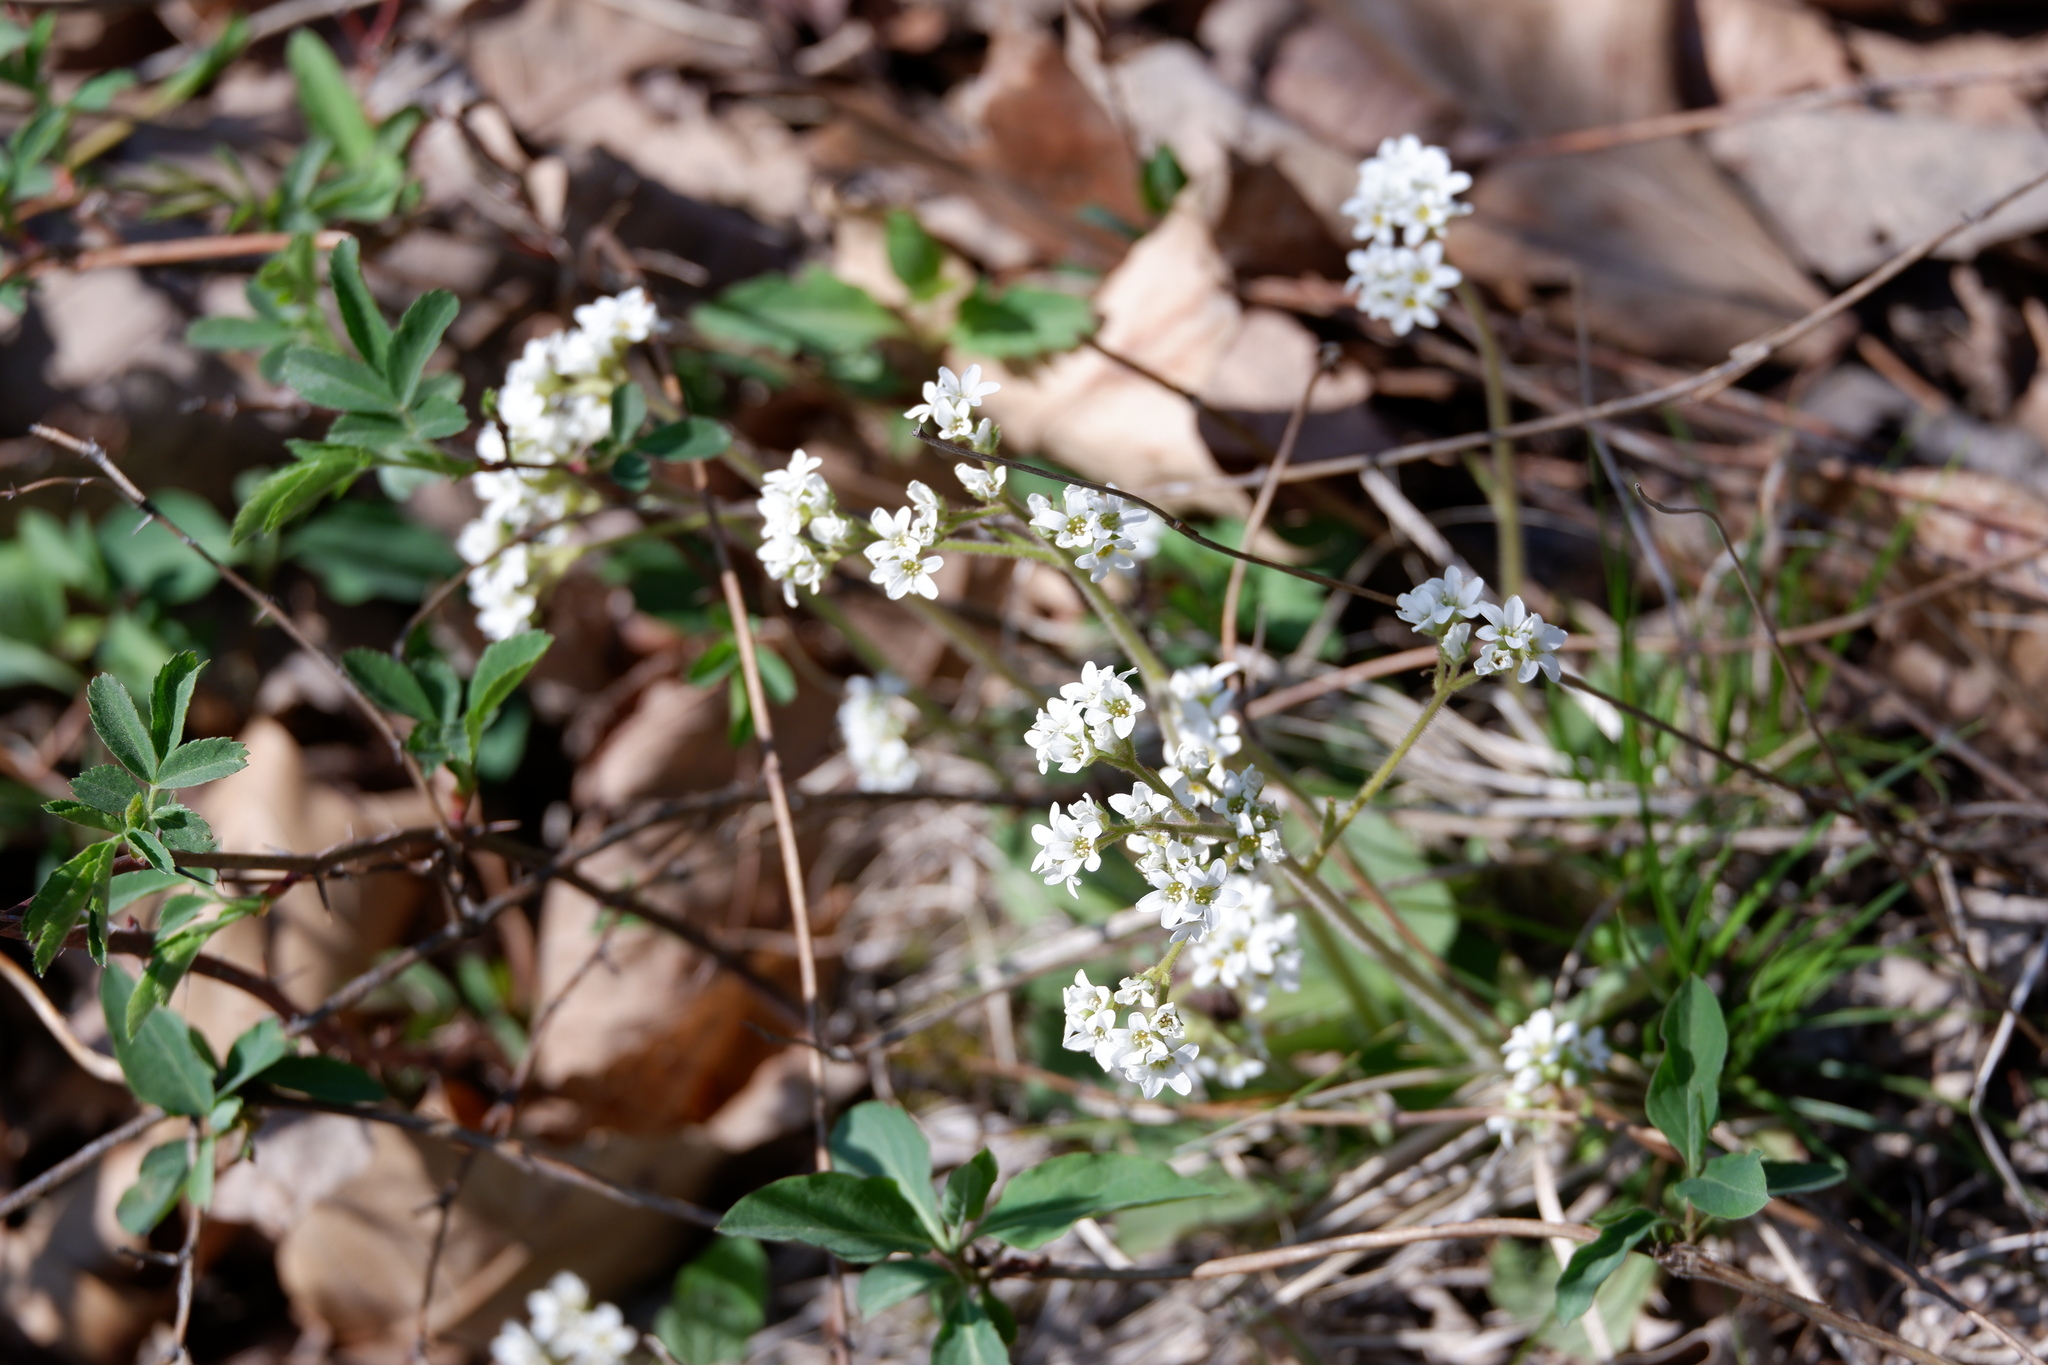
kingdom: Plantae
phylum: Tracheophyta
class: Magnoliopsida
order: Saxifragales
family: Saxifragaceae
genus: Micranthes
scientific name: Micranthes virginiensis
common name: Early saxifrage
